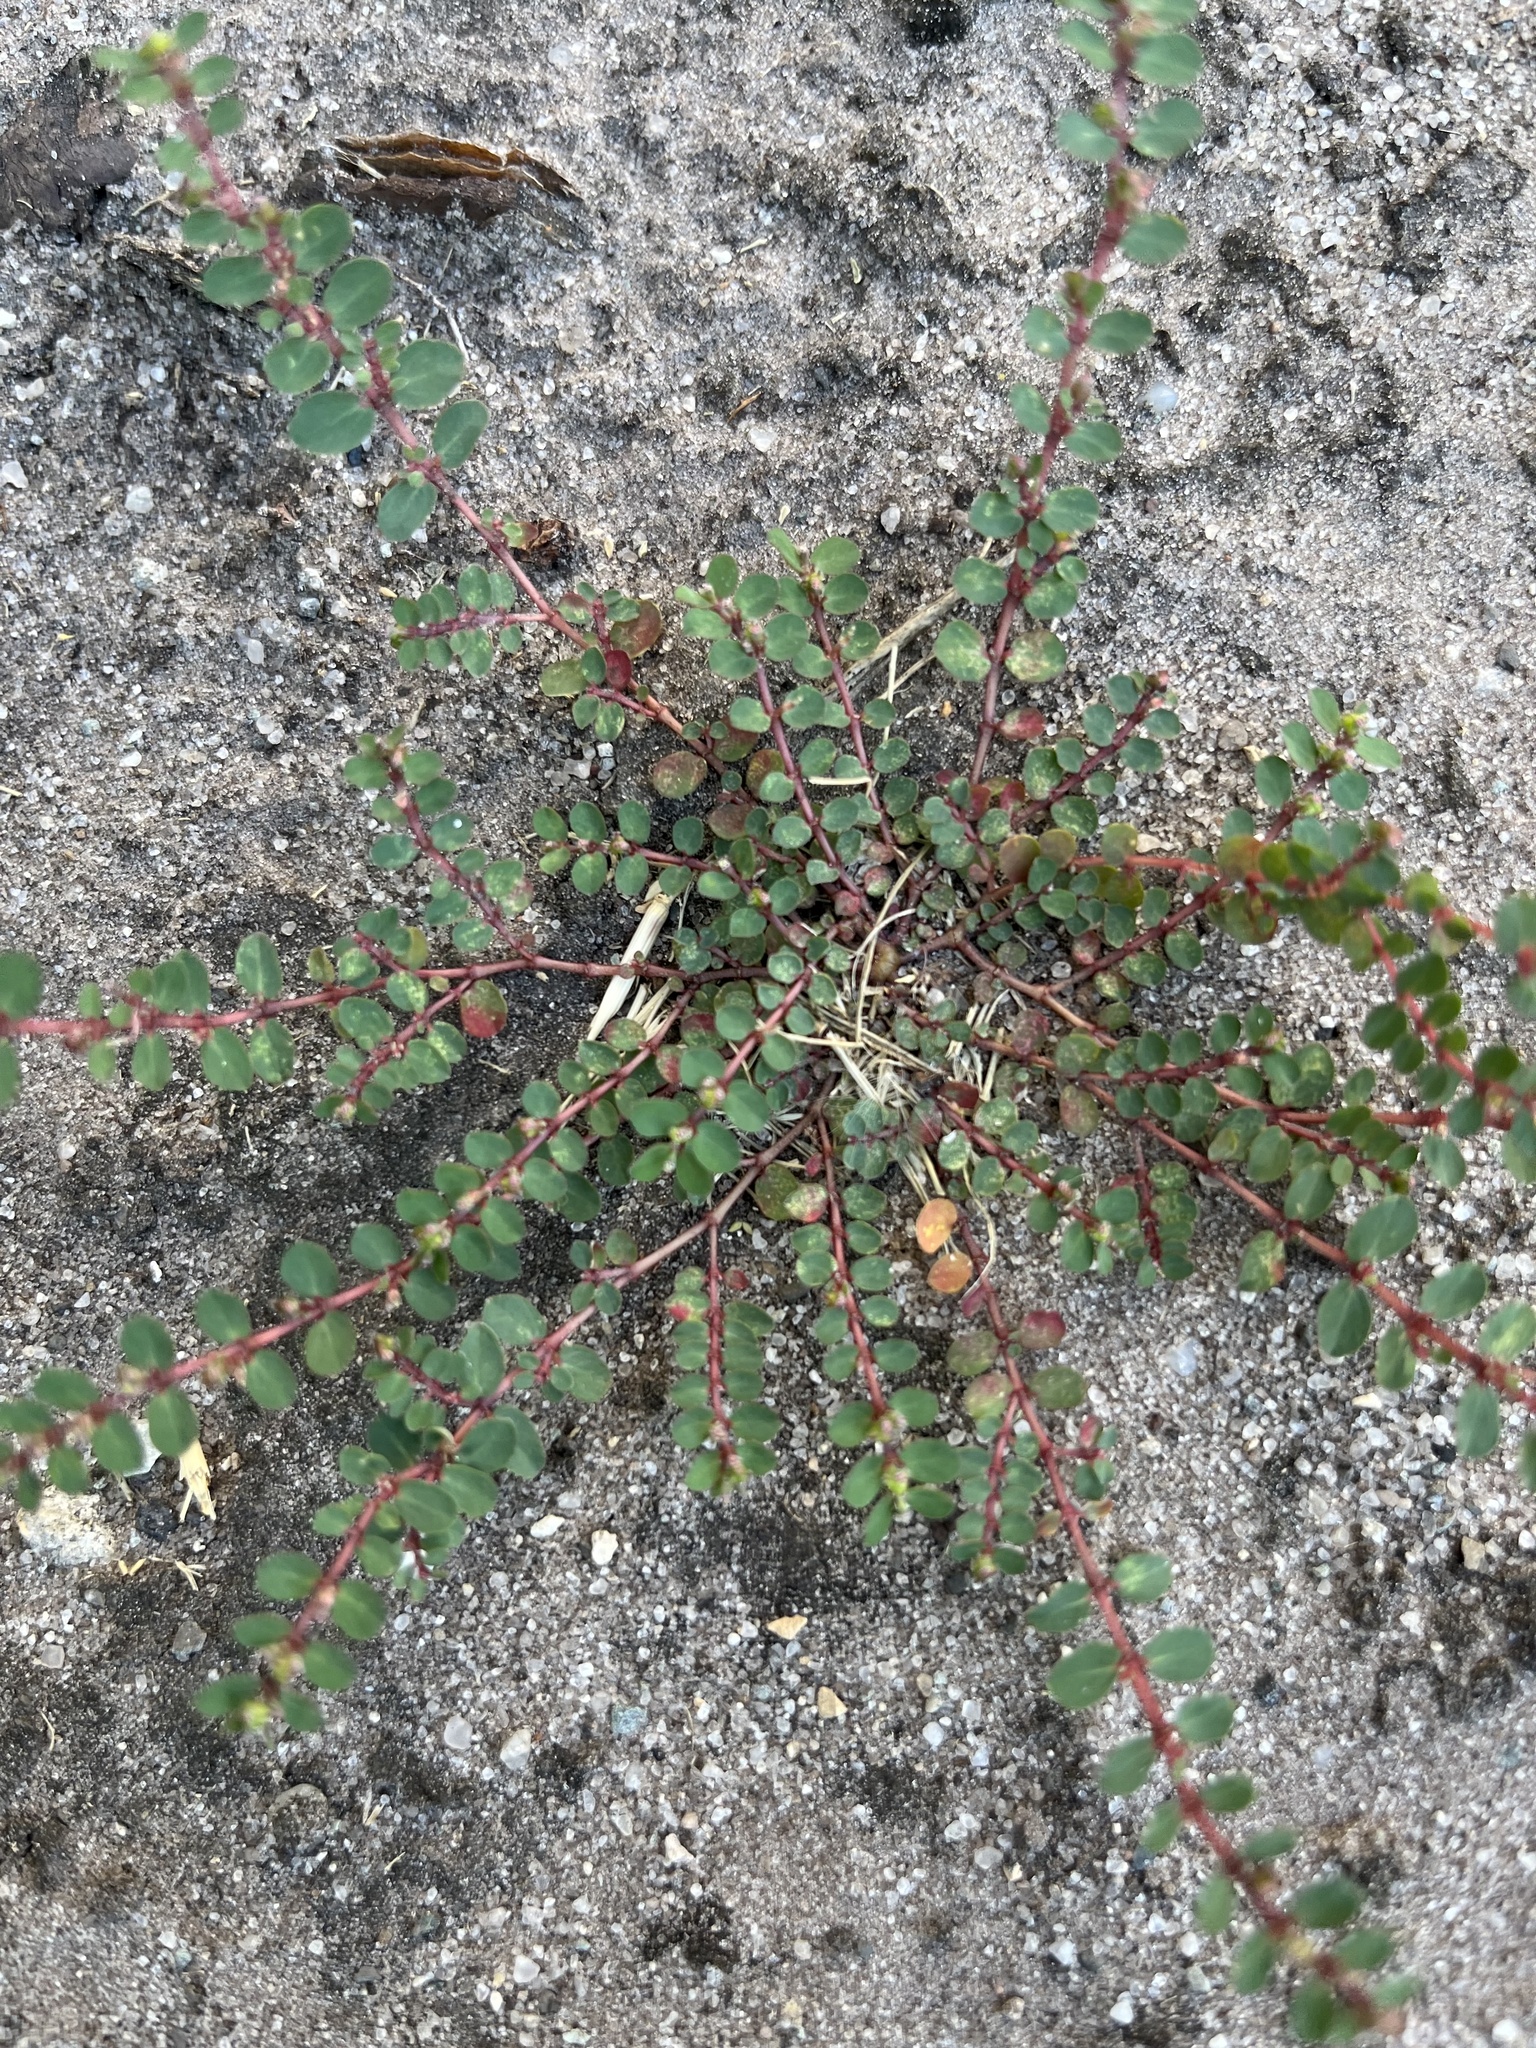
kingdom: Plantae
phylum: Tracheophyta
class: Magnoliopsida
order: Malpighiales
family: Euphorbiaceae
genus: Euphorbia
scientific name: Euphorbia prostrata
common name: Prostrate sandmat
